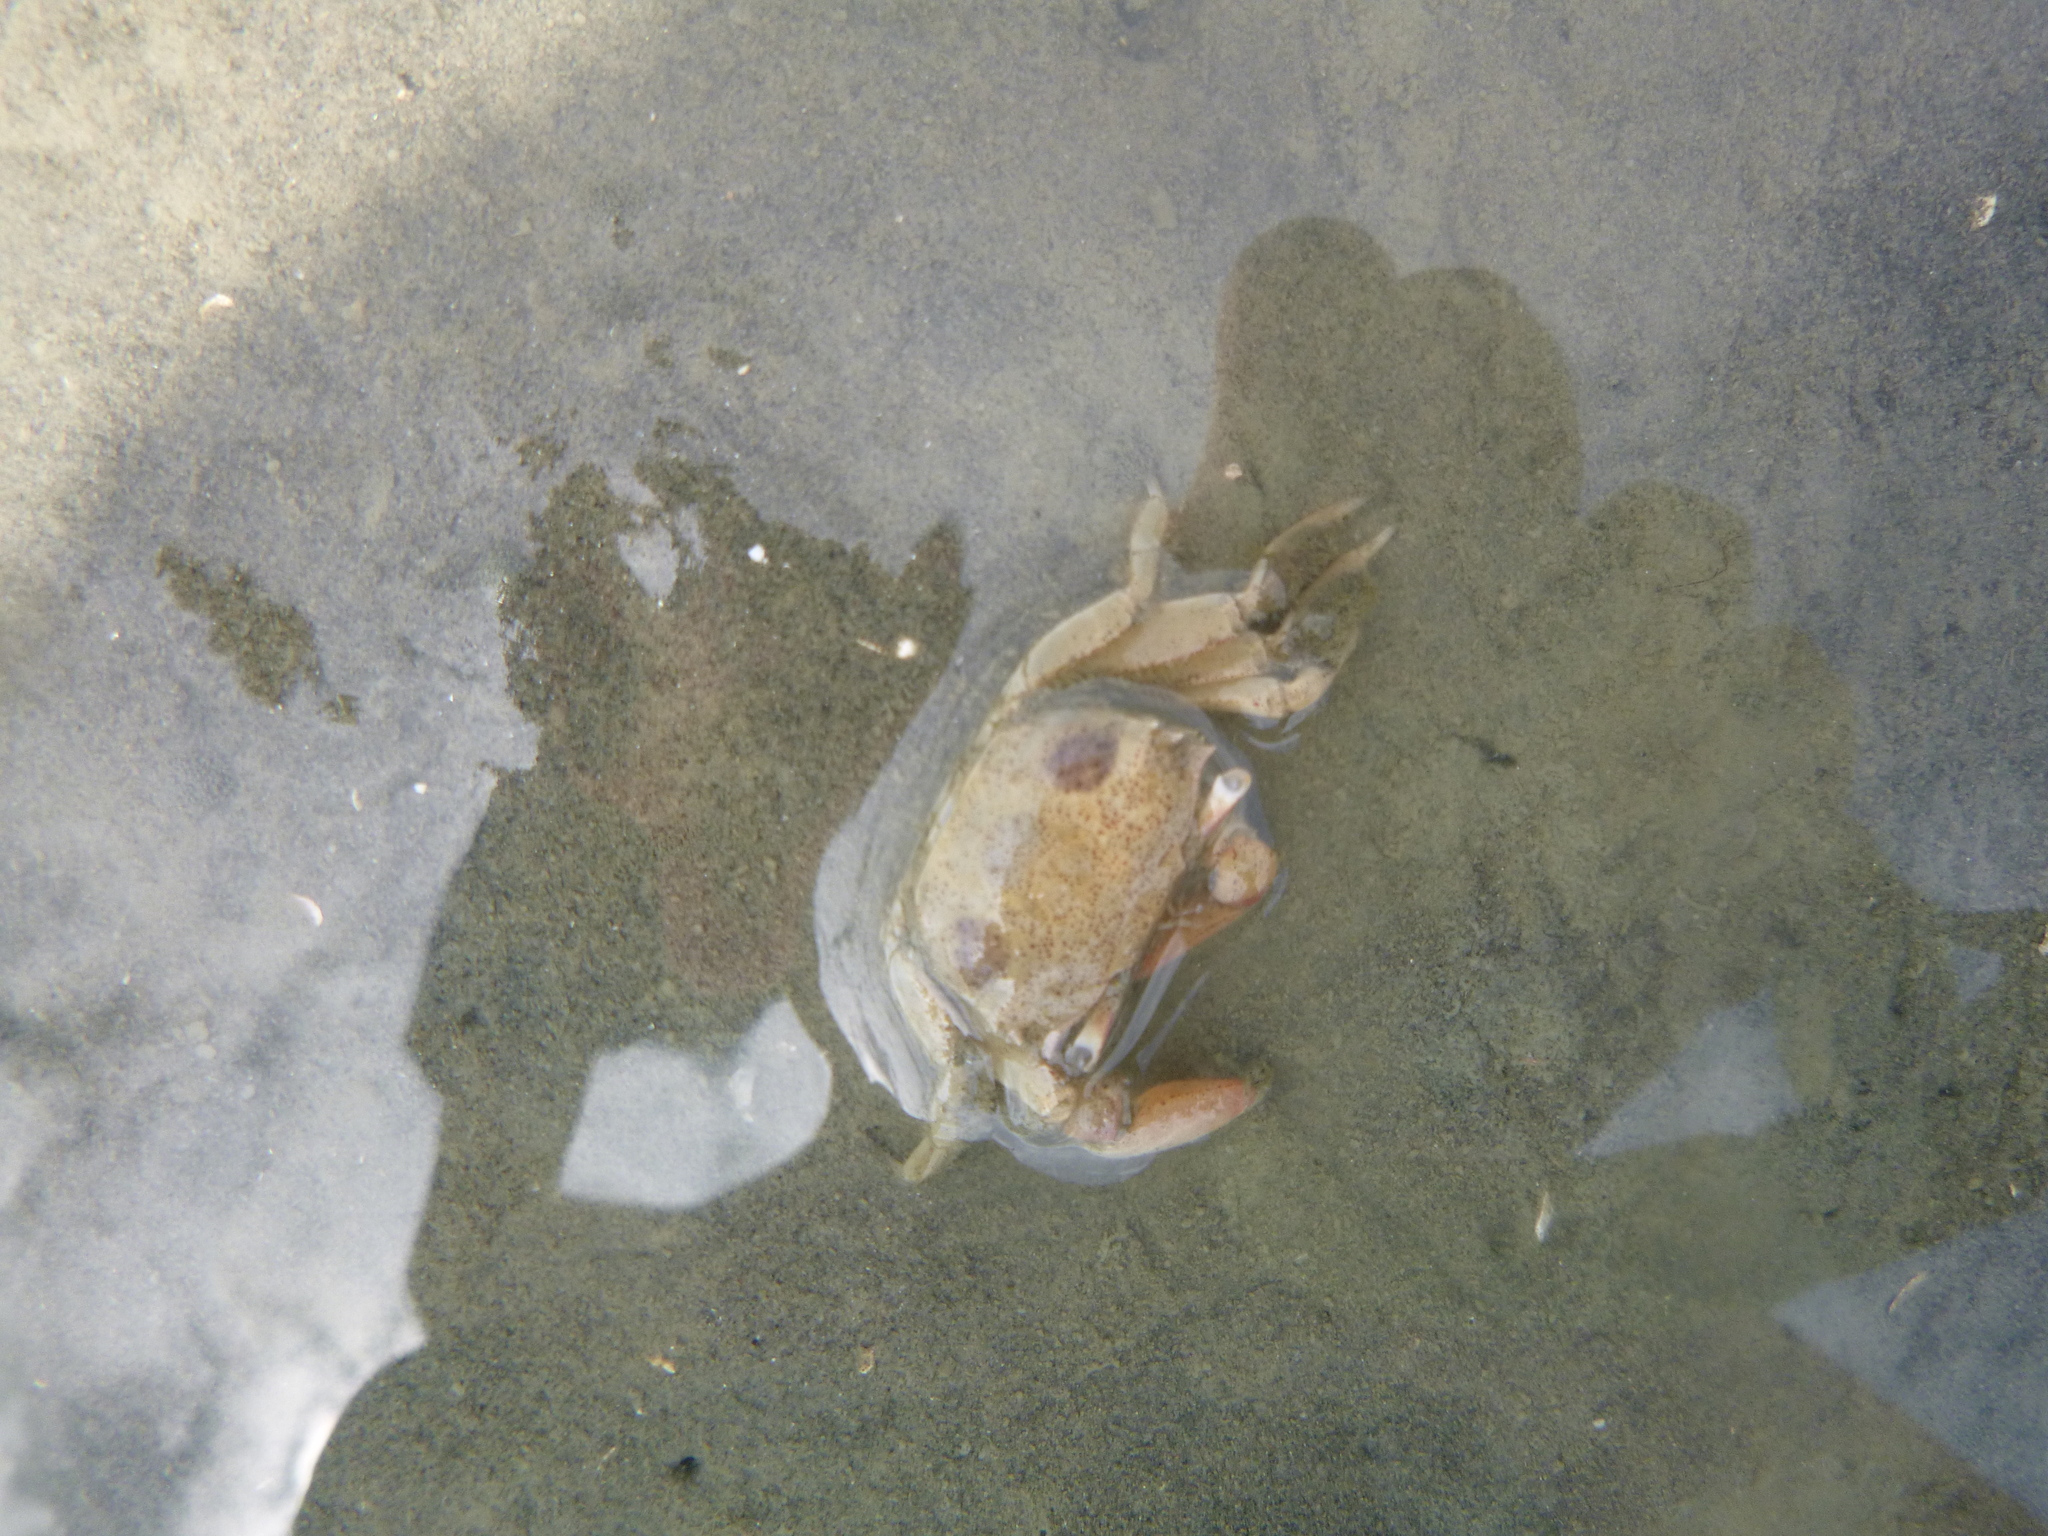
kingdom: Animalia
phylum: Arthropoda
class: Malacostraca
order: Decapoda
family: Macrophthalmidae
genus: Hemiplax
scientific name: Hemiplax hirtipes
